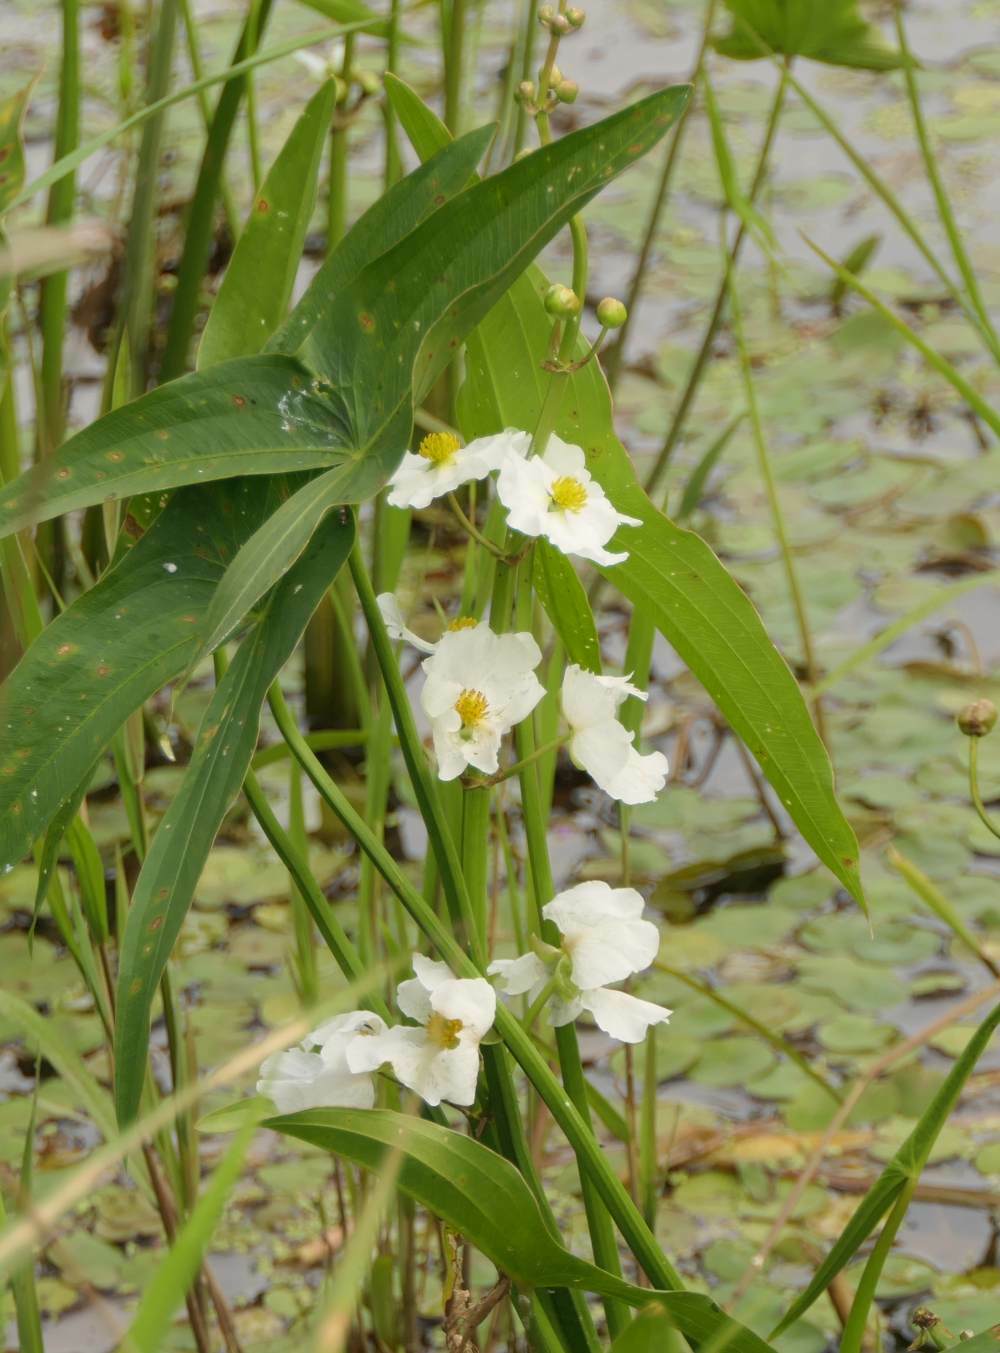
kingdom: Plantae
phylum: Tracheophyta
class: Liliopsida
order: Alismatales
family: Alismataceae
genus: Sagittaria
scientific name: Sagittaria latifolia
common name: Duck-potato
